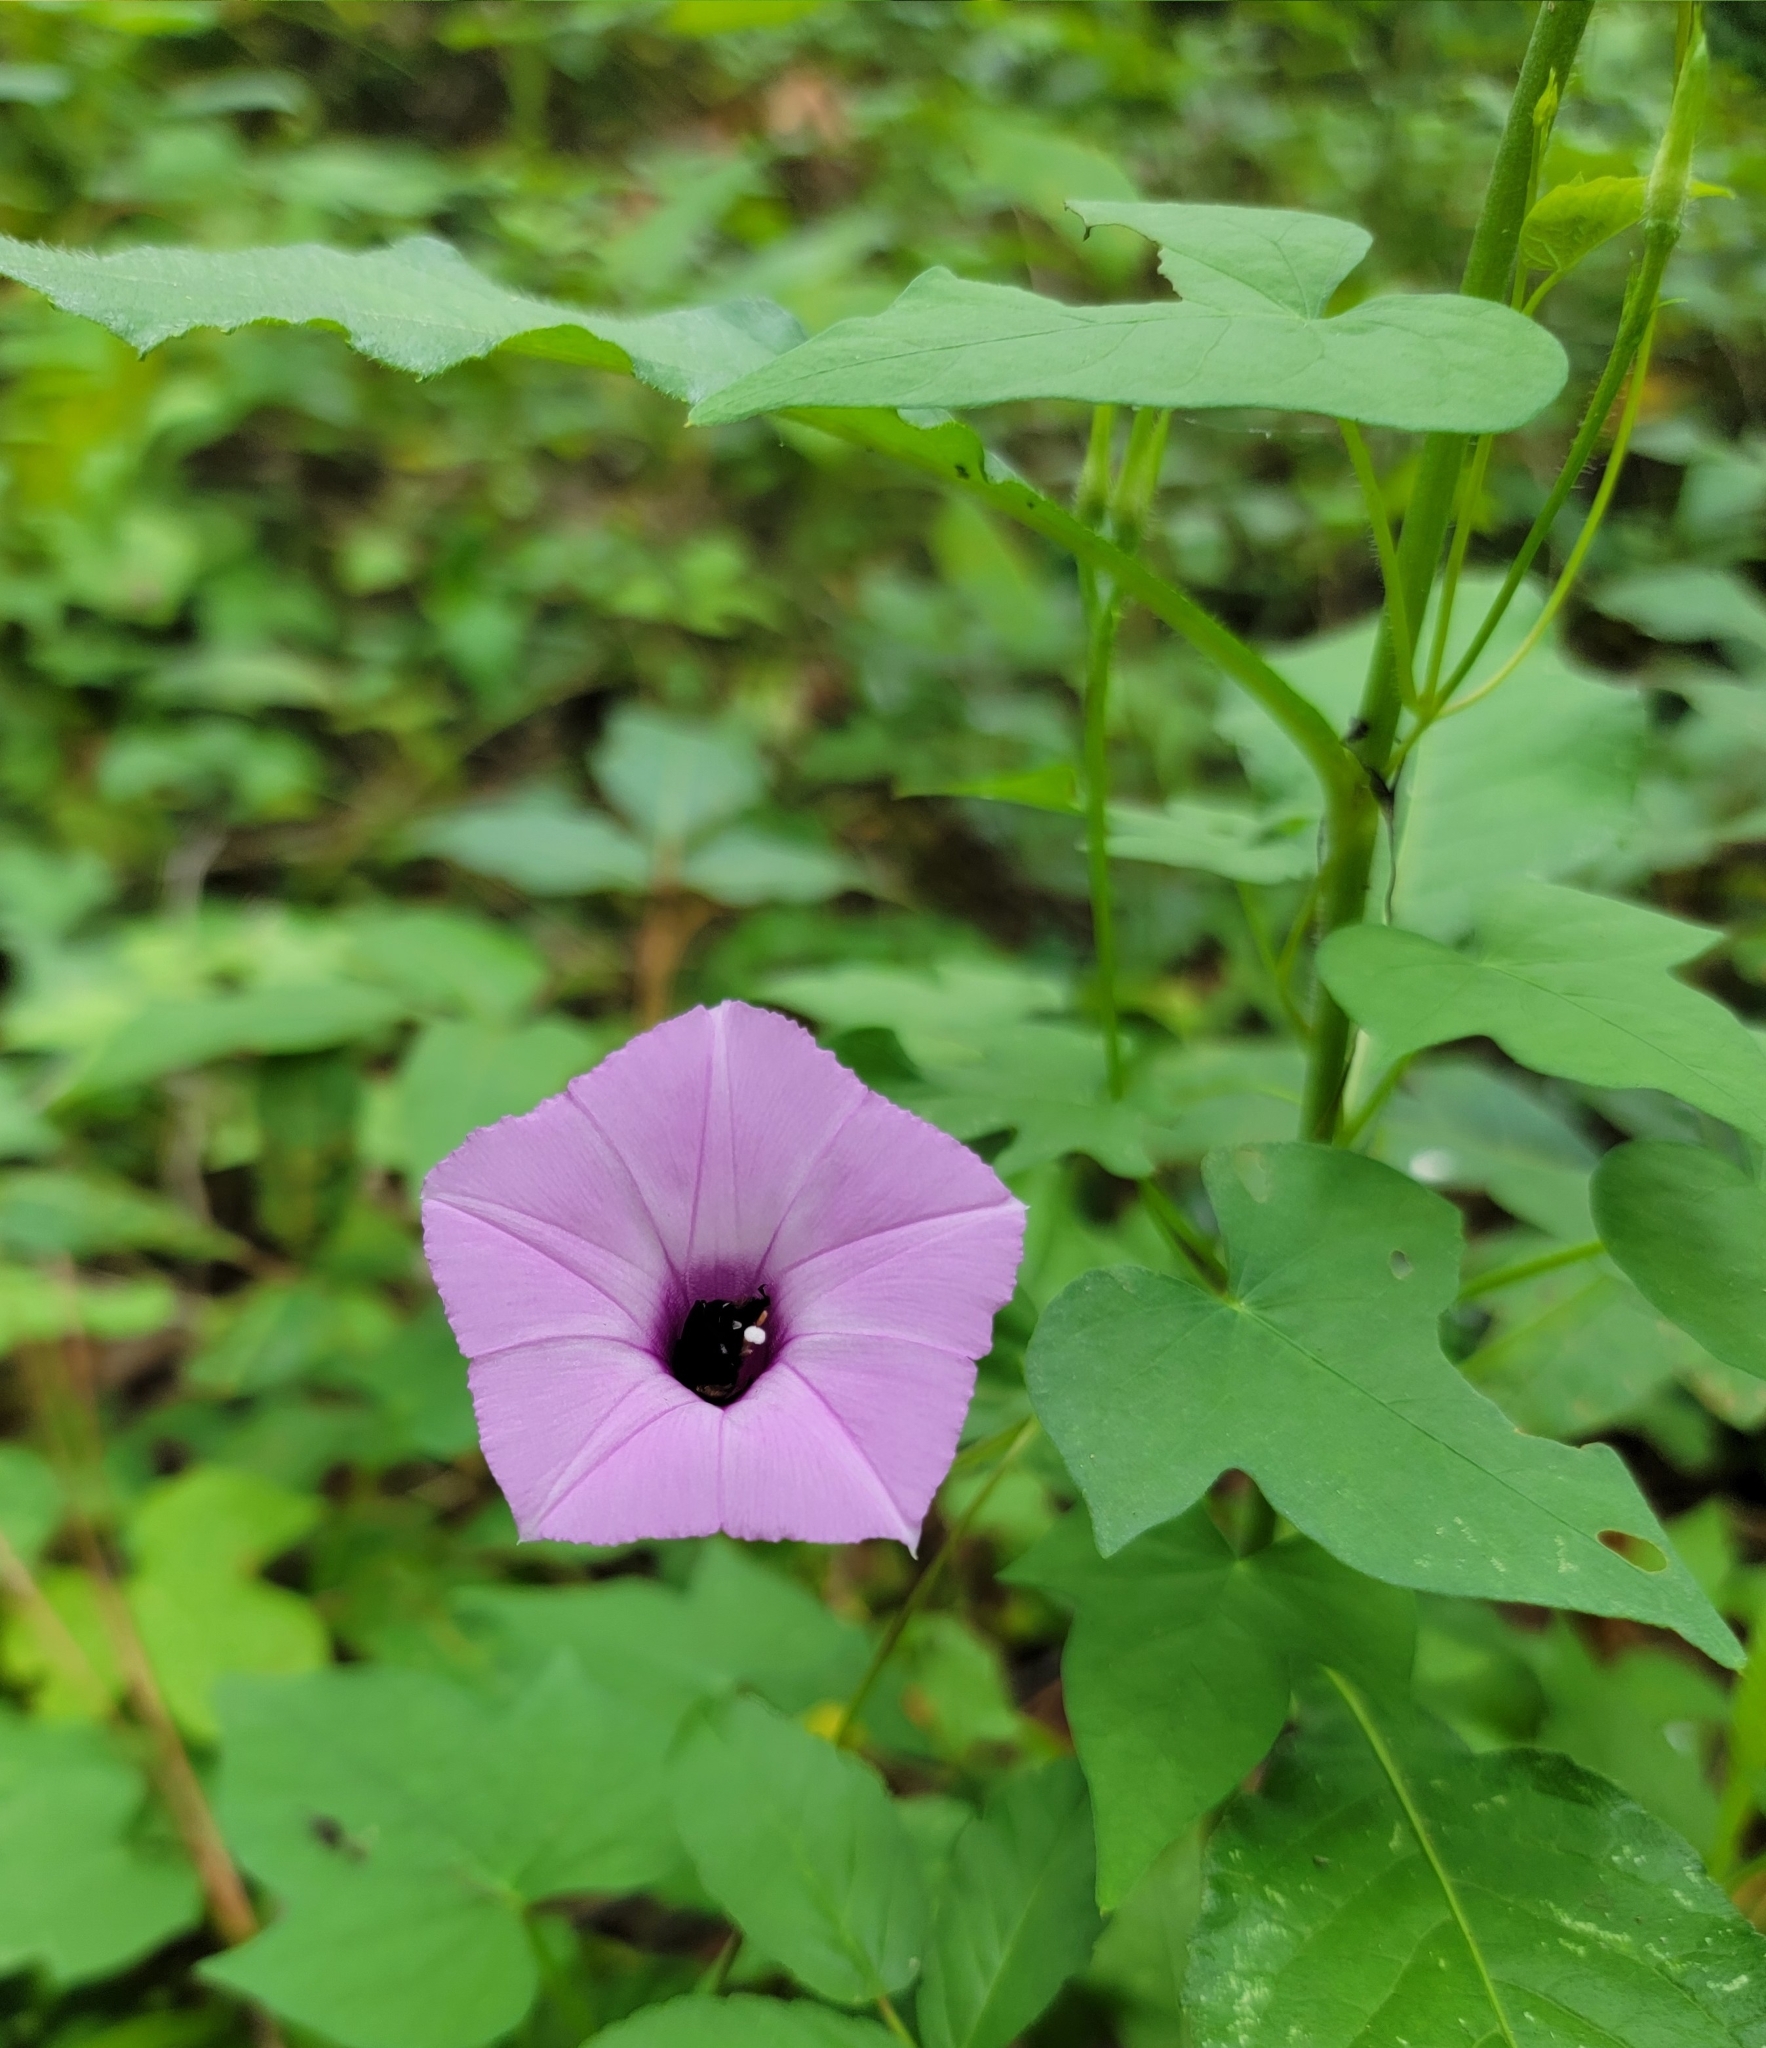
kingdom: Plantae
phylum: Tracheophyta
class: Magnoliopsida
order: Solanales
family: Convolvulaceae
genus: Ipomoea
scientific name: Ipomoea cordatotriloba
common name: Cotton morning glory
